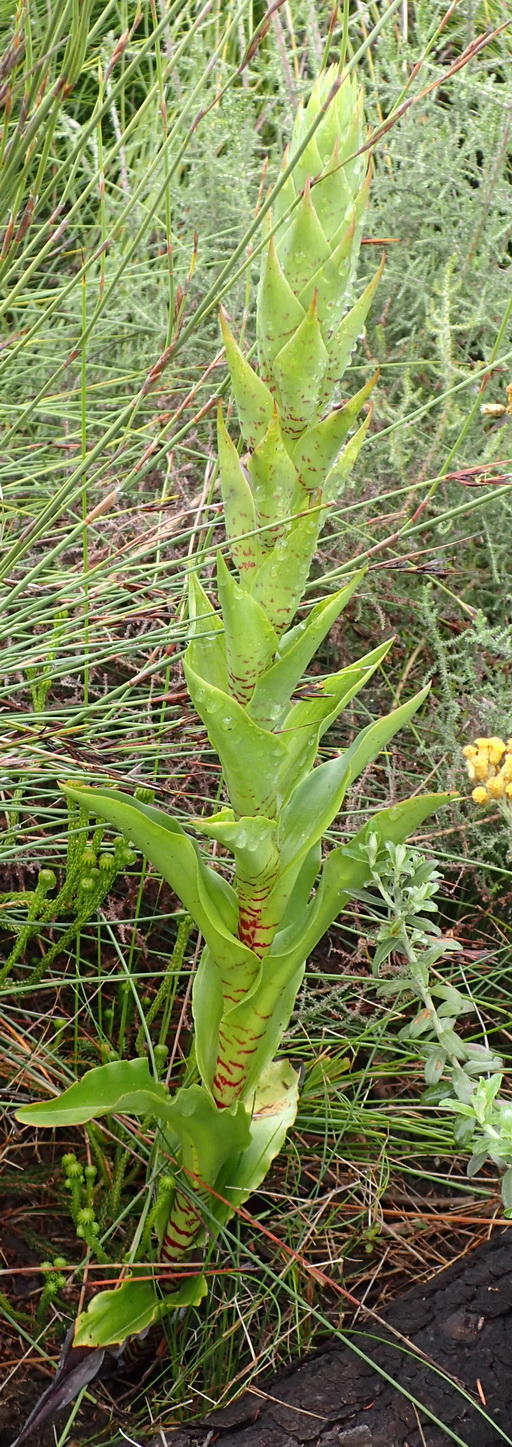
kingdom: Plantae
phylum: Tracheophyta
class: Liliopsida
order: Asparagales
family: Orchidaceae
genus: Disa
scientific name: Disa cornuta
